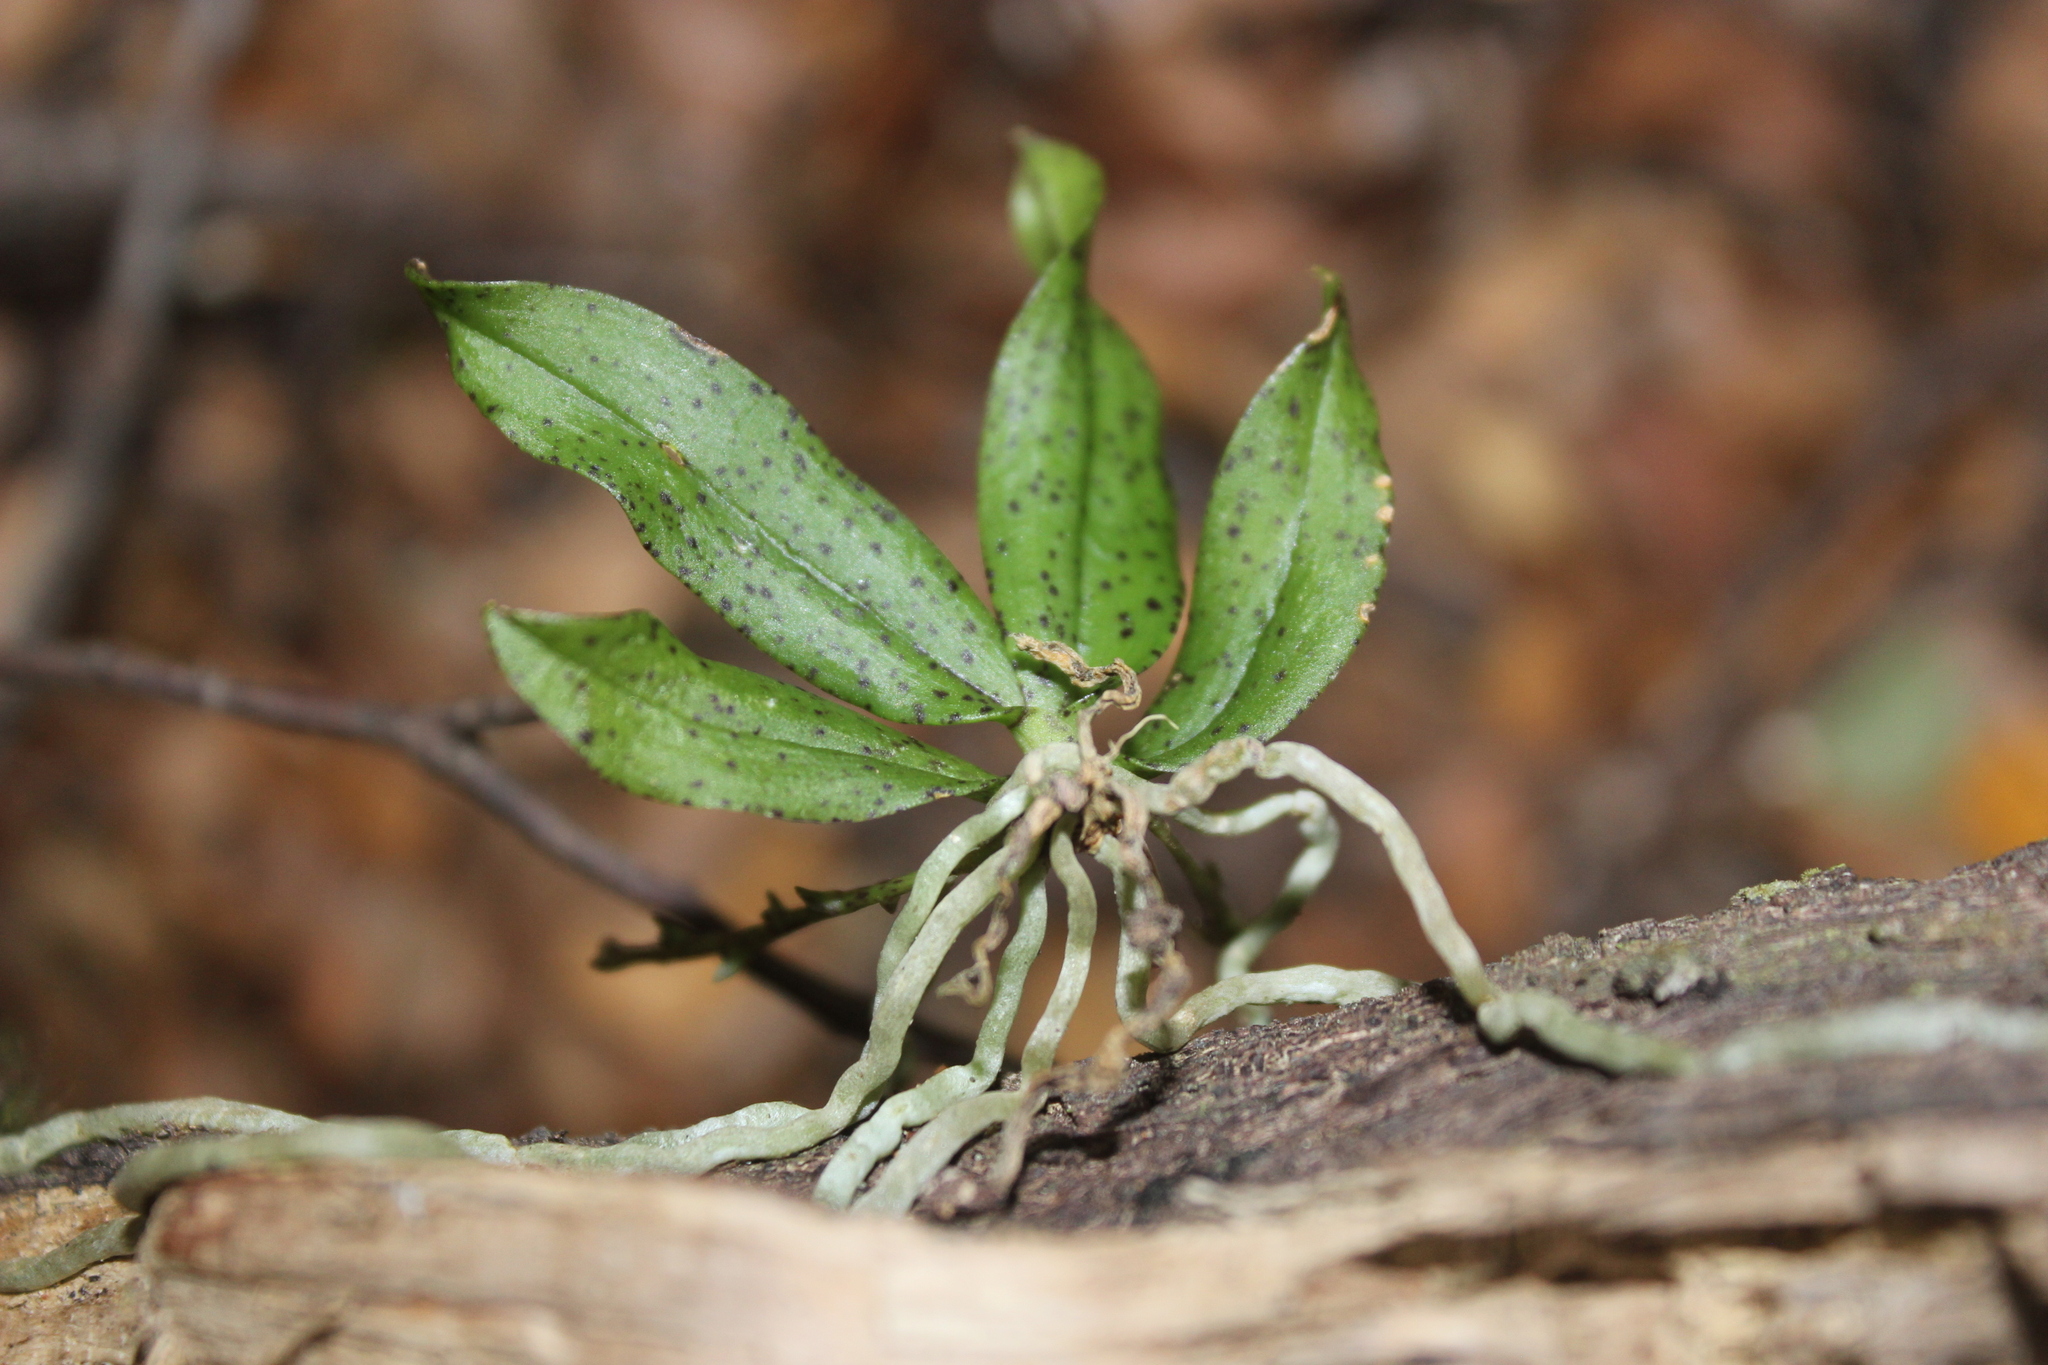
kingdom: Plantae
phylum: Tracheophyta
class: Liliopsida
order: Asparagales
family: Orchidaceae
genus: Drymoanthus
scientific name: Drymoanthus flavus
